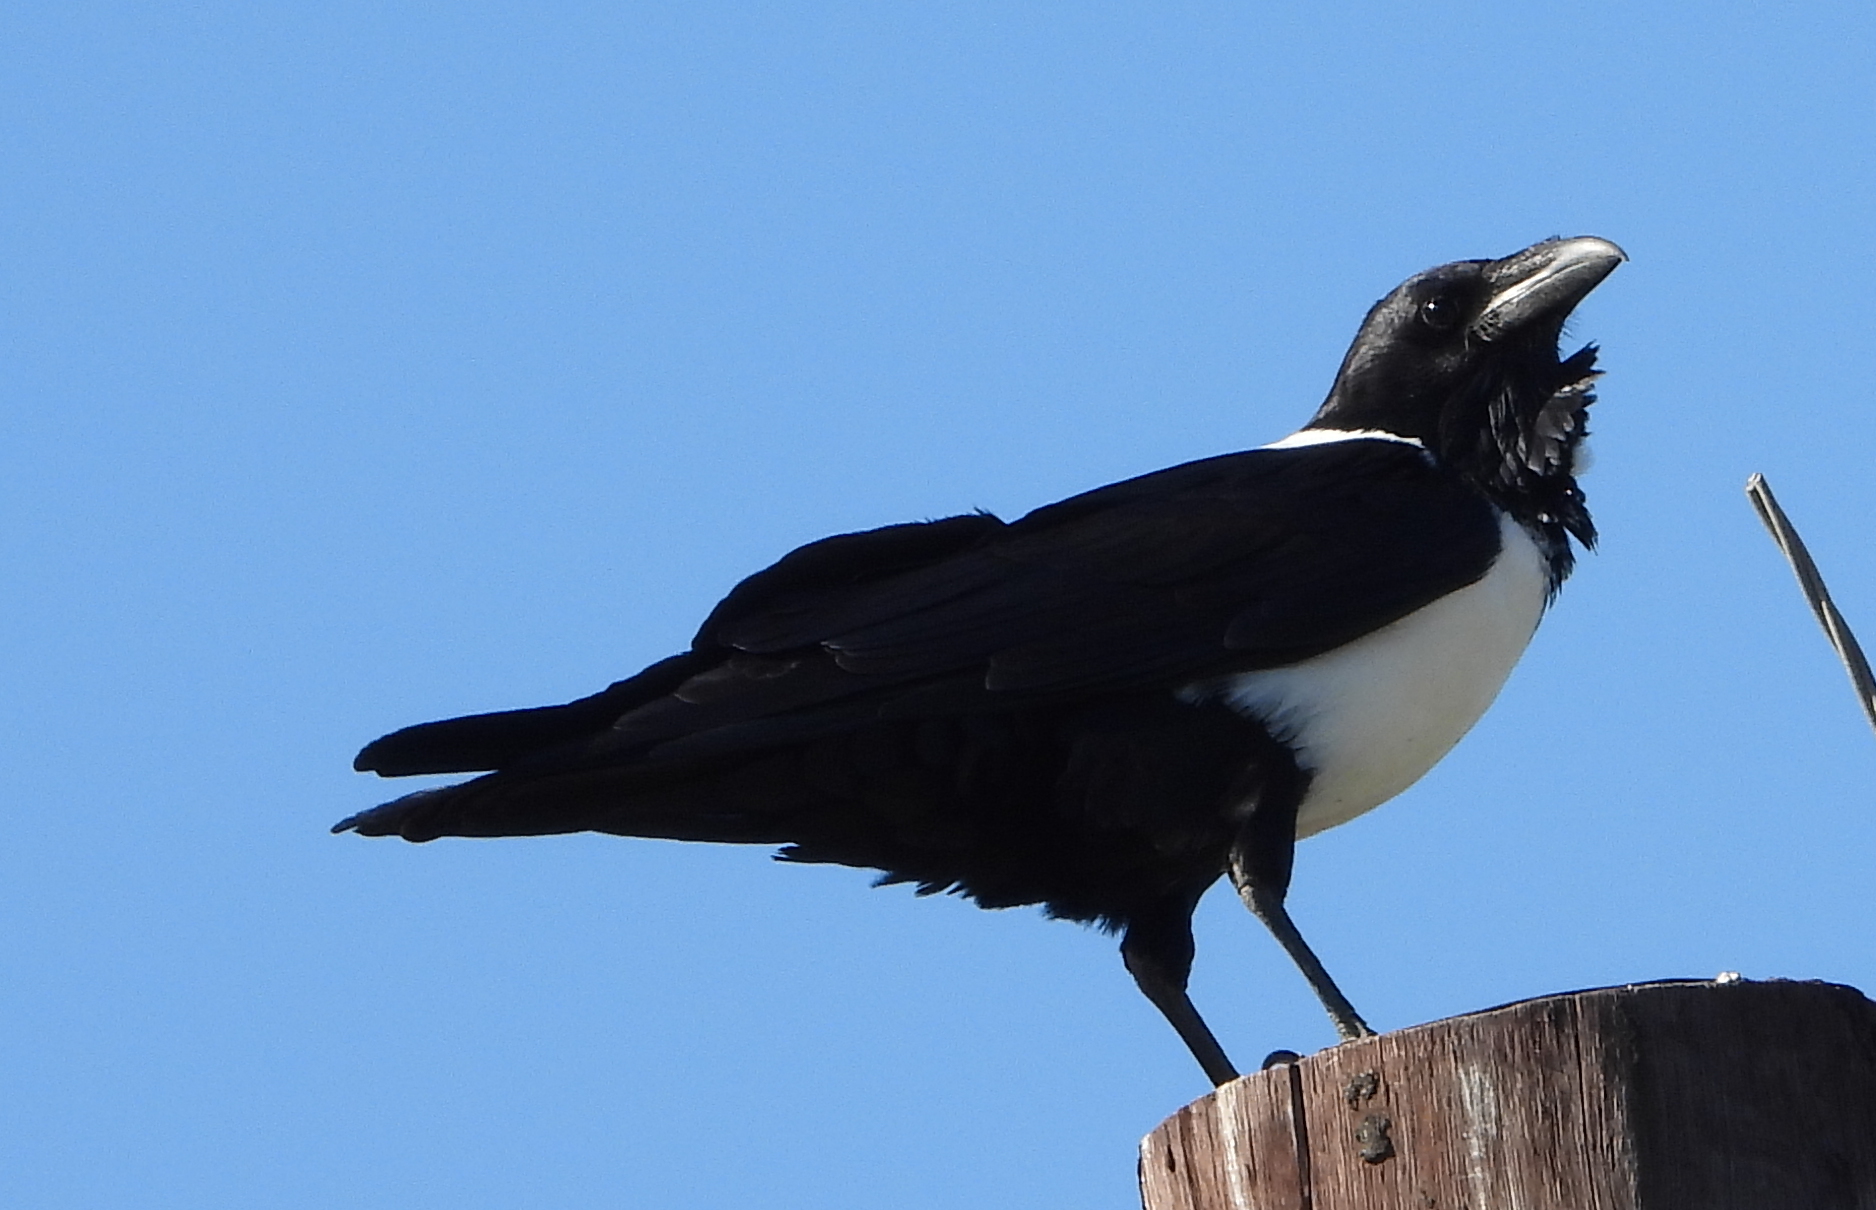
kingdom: Animalia
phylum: Chordata
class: Aves
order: Passeriformes
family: Corvidae
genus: Corvus
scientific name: Corvus albus
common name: Pied crow
